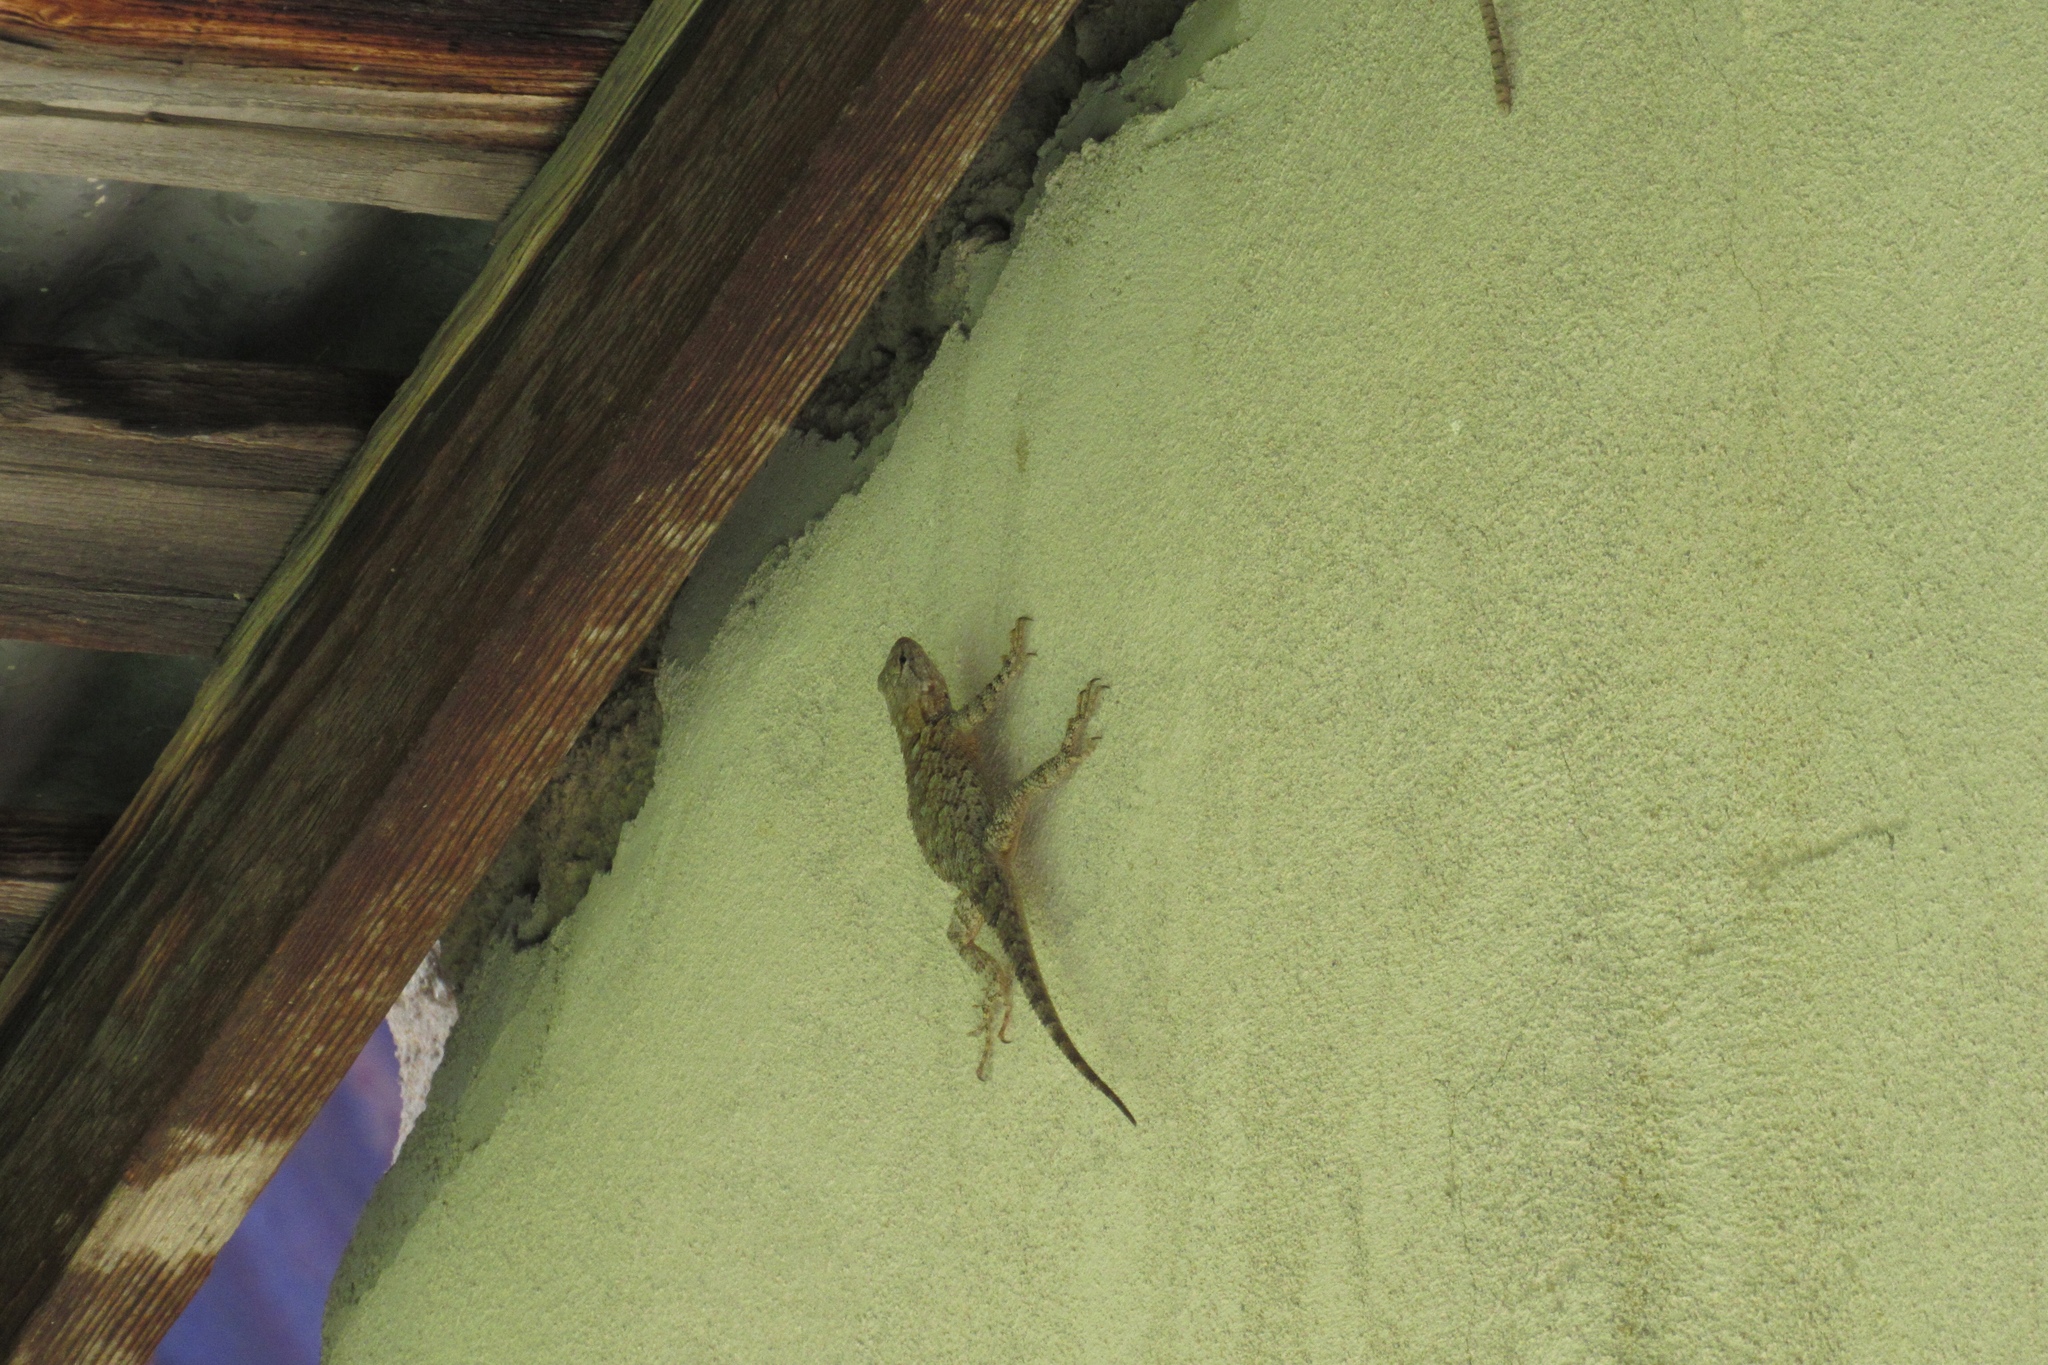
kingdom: Animalia
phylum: Chordata
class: Squamata
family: Phrynosomatidae
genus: Sceloporus
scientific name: Sceloporus clarkii
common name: Clark's spiny lizard
